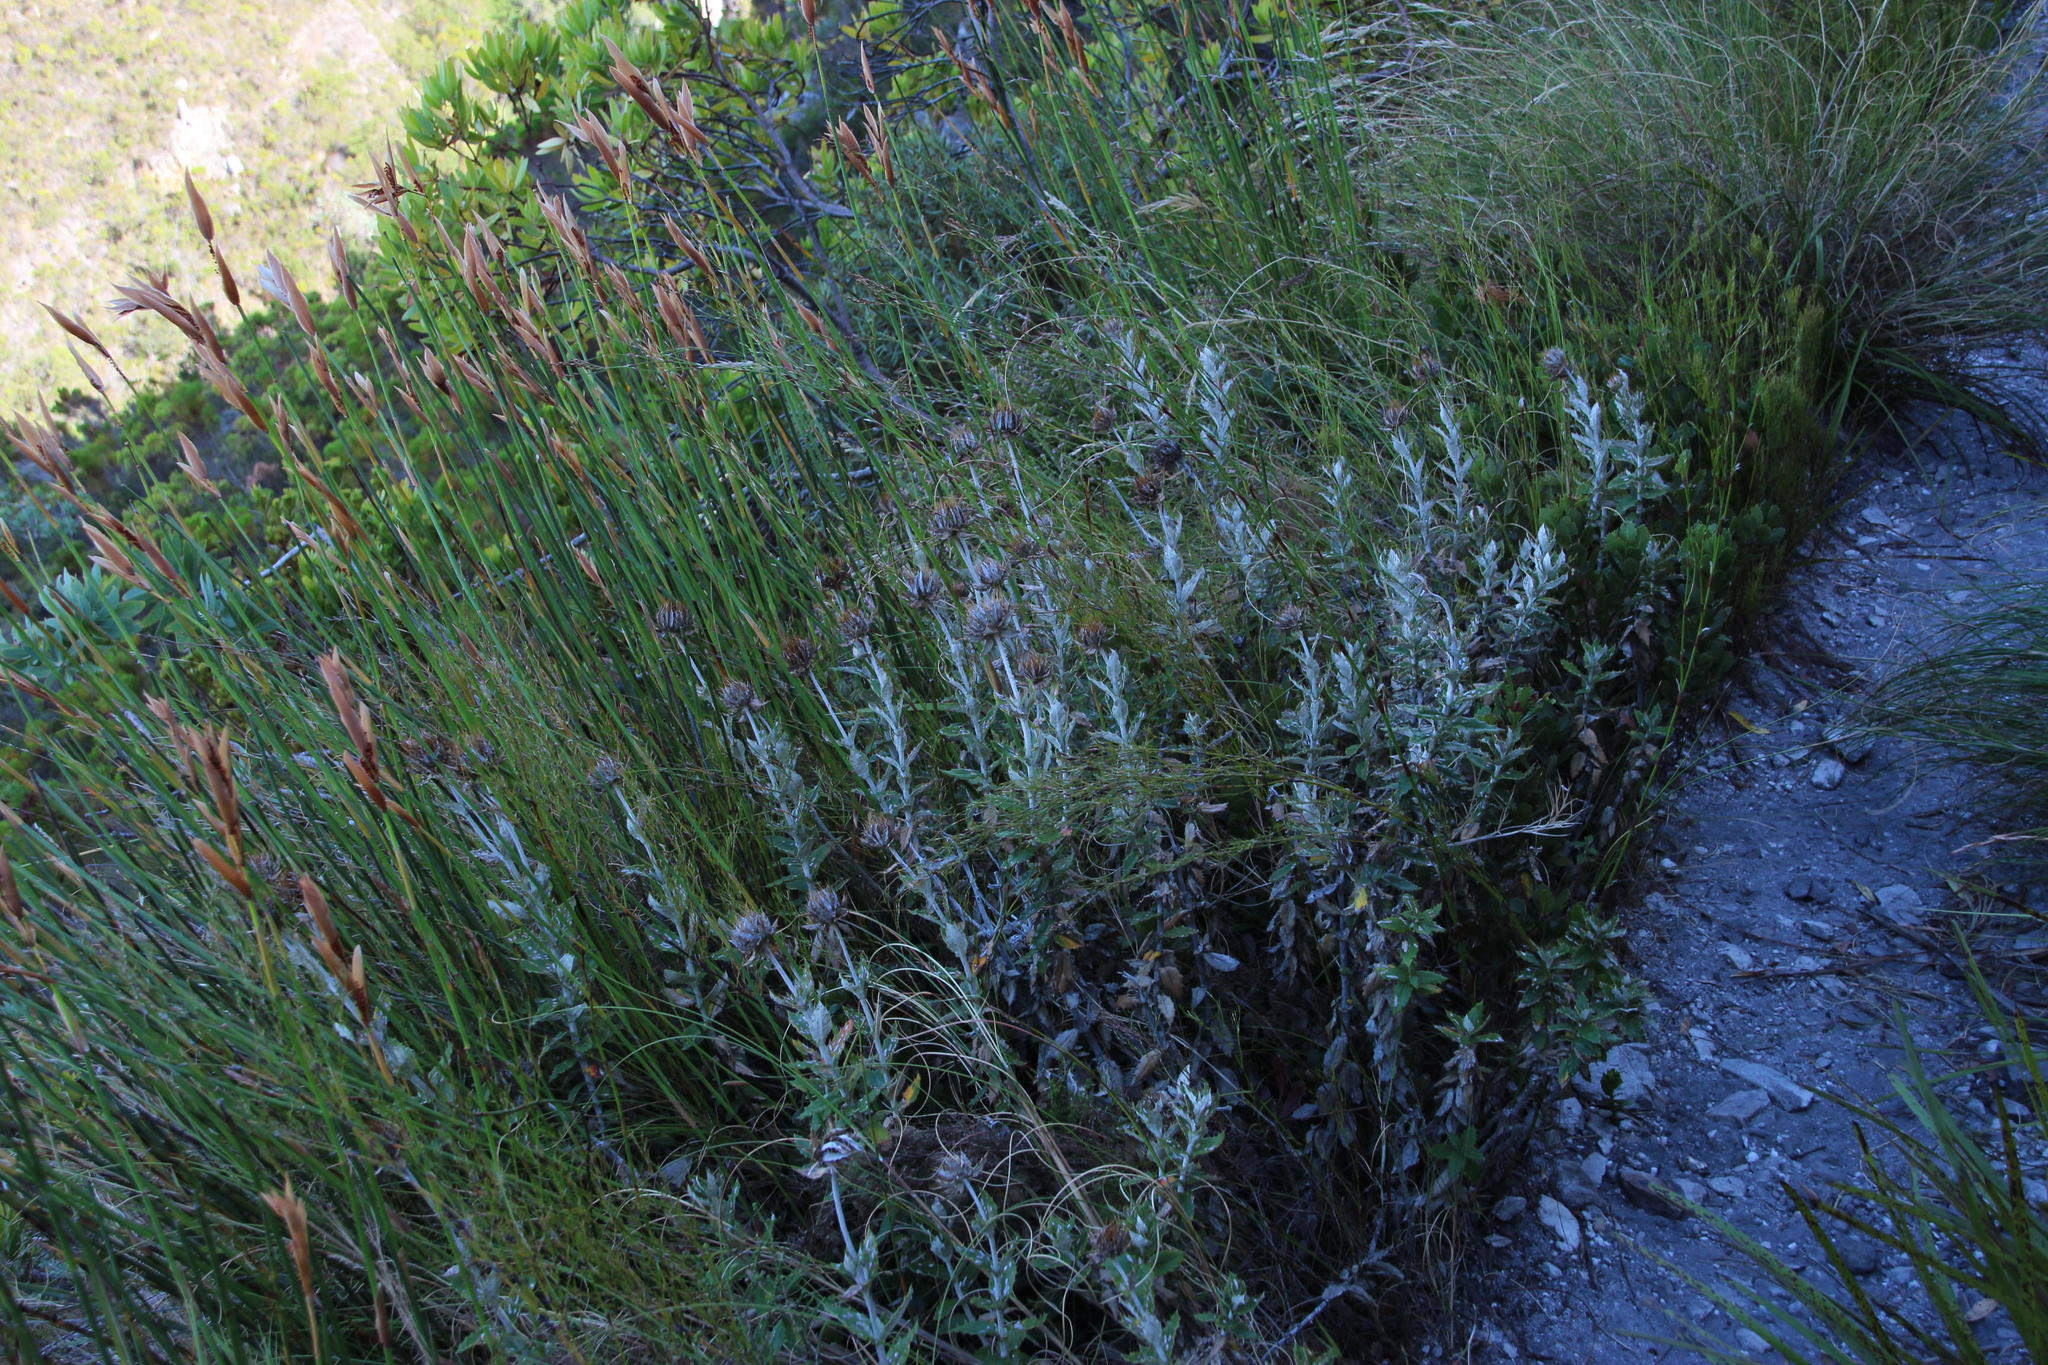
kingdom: Plantae
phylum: Tracheophyta
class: Magnoliopsida
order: Asterales
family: Asteraceae
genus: Berkheya
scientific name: Berkheya barbata
